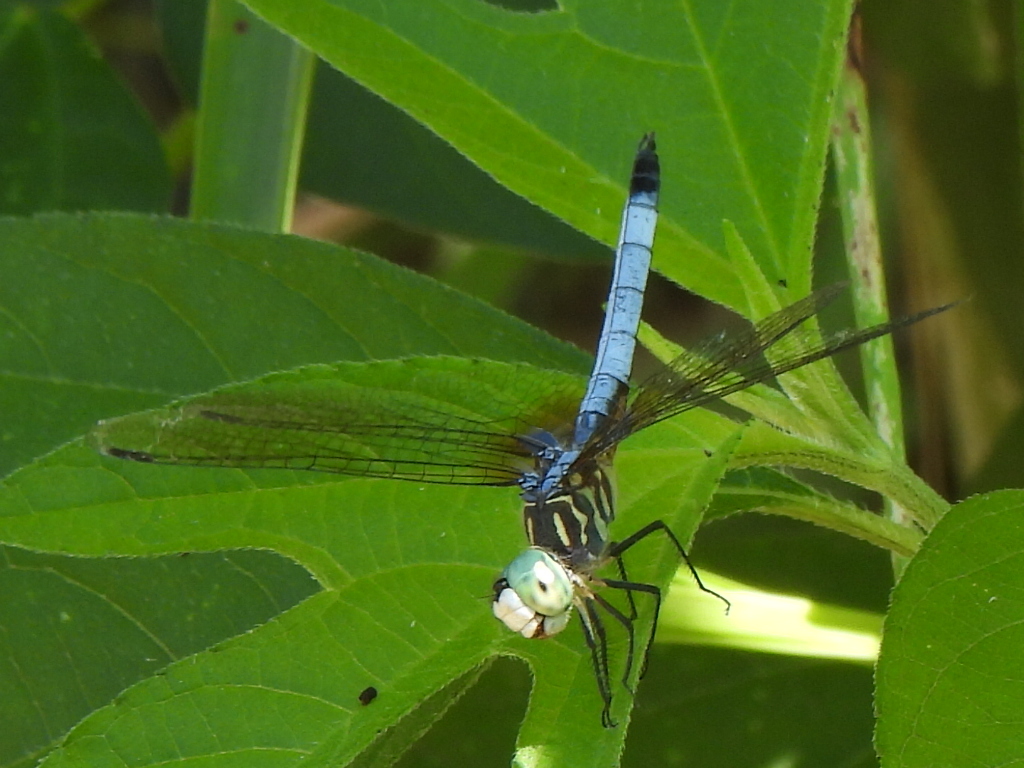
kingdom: Animalia
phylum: Arthropoda
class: Insecta
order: Odonata
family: Libellulidae
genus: Pachydiplax
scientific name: Pachydiplax longipennis
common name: Blue dasher
